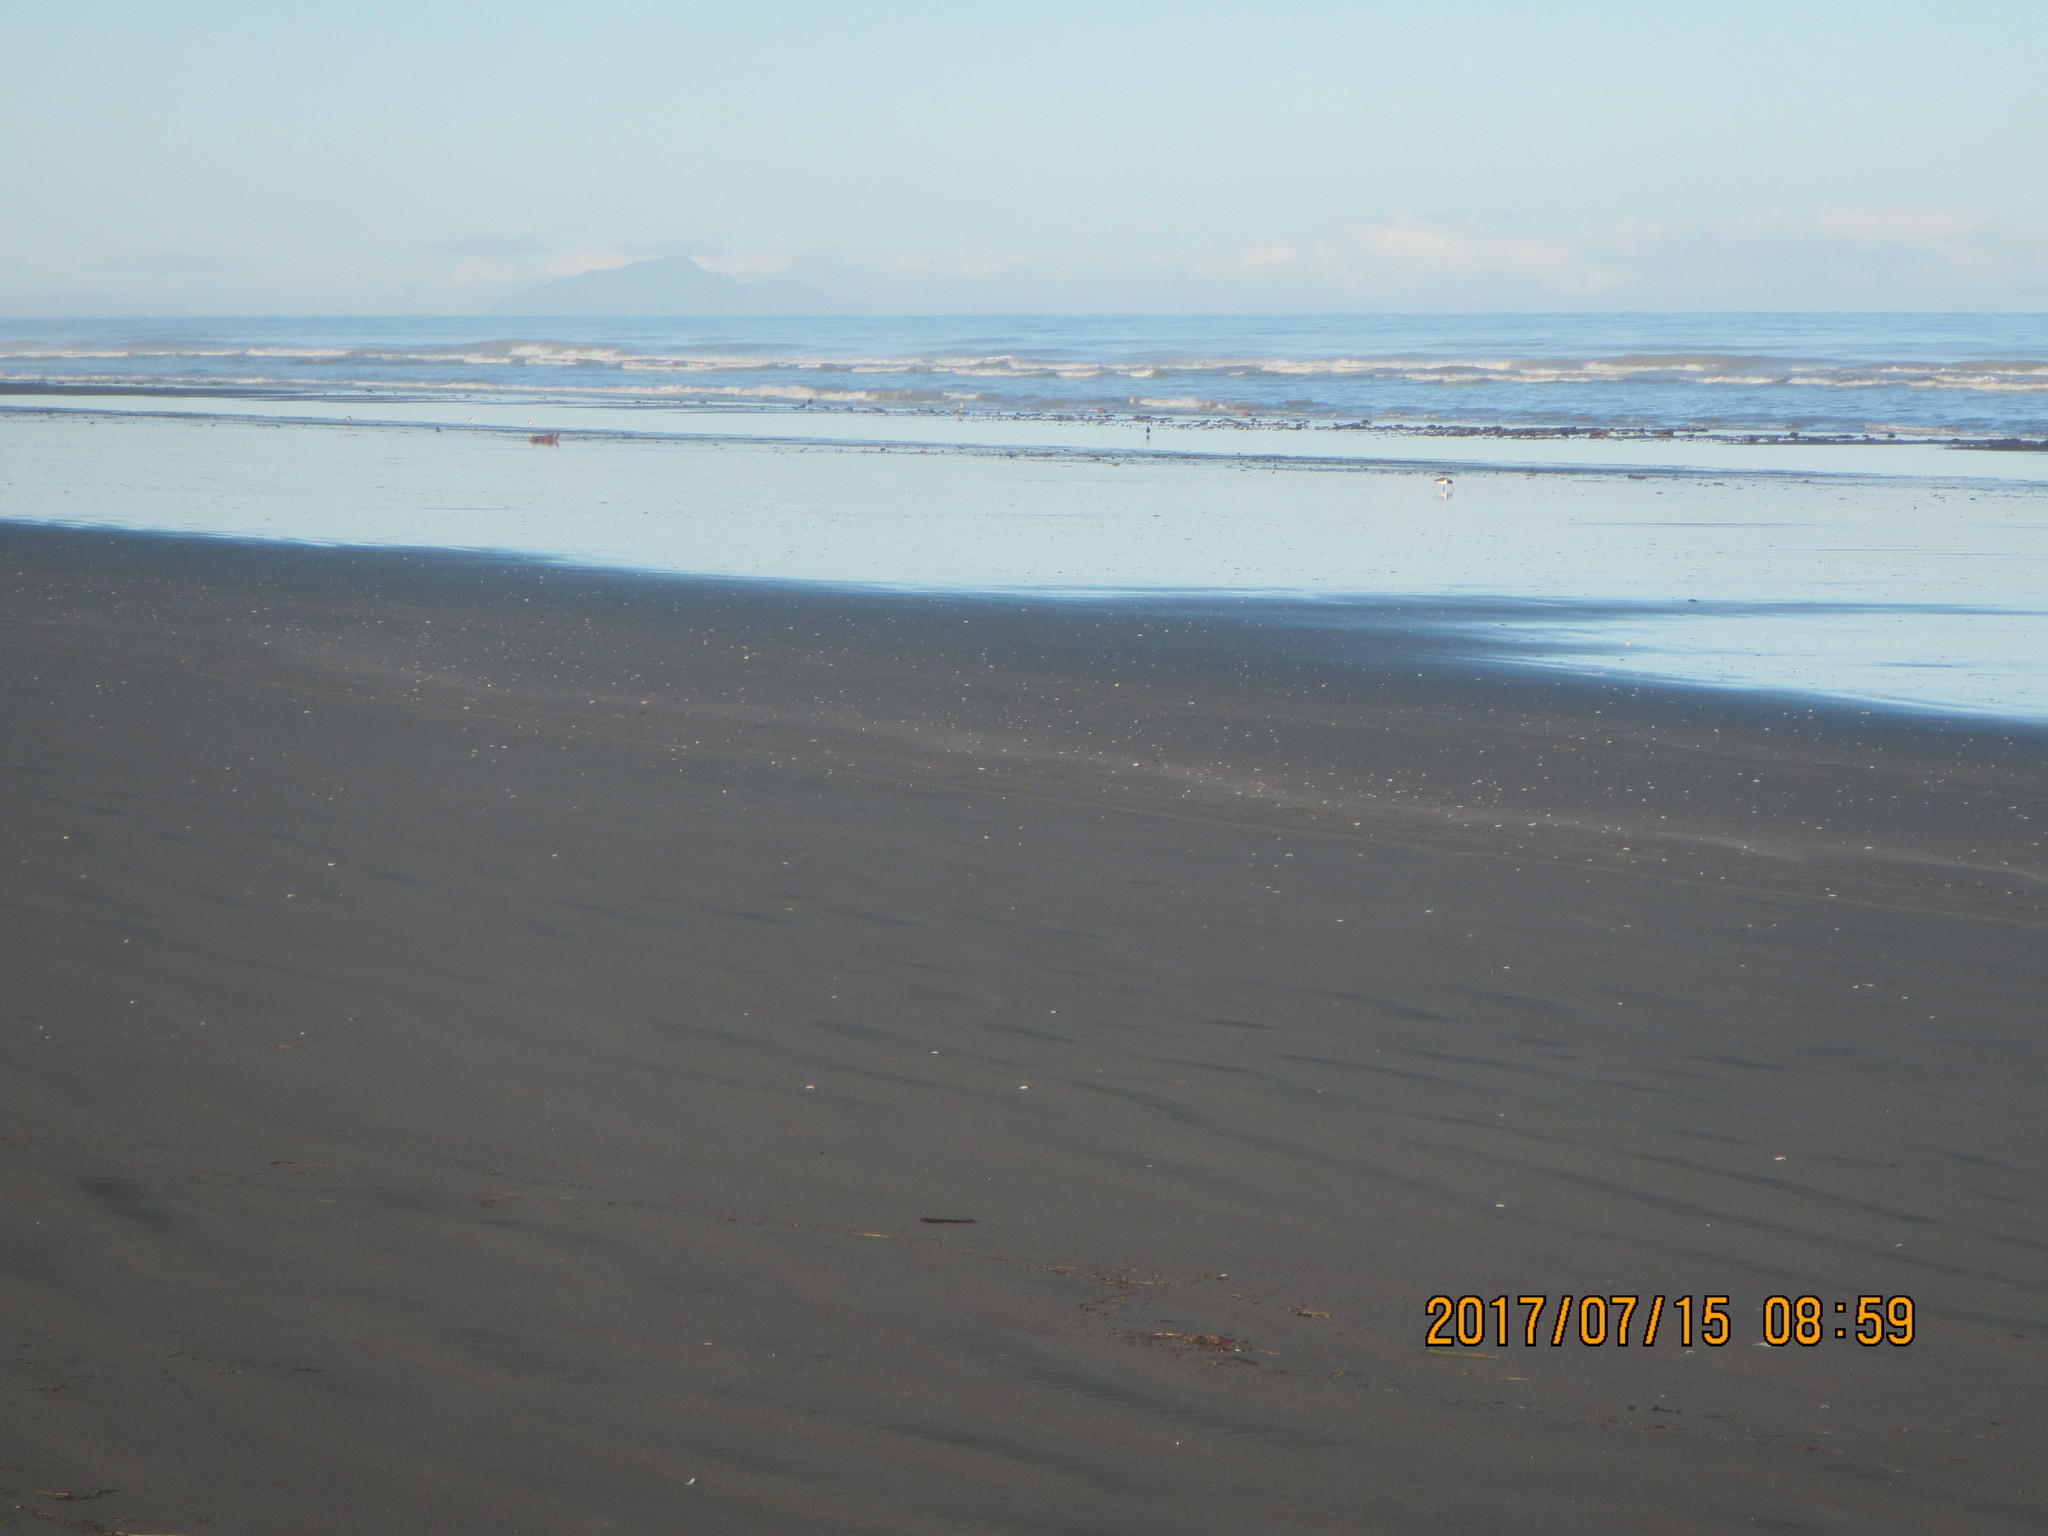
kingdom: Animalia
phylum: Chordata
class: Aves
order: Charadriiformes
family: Haematopodidae
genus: Haematopus
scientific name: Haematopus finschi
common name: South island oystercatcher
